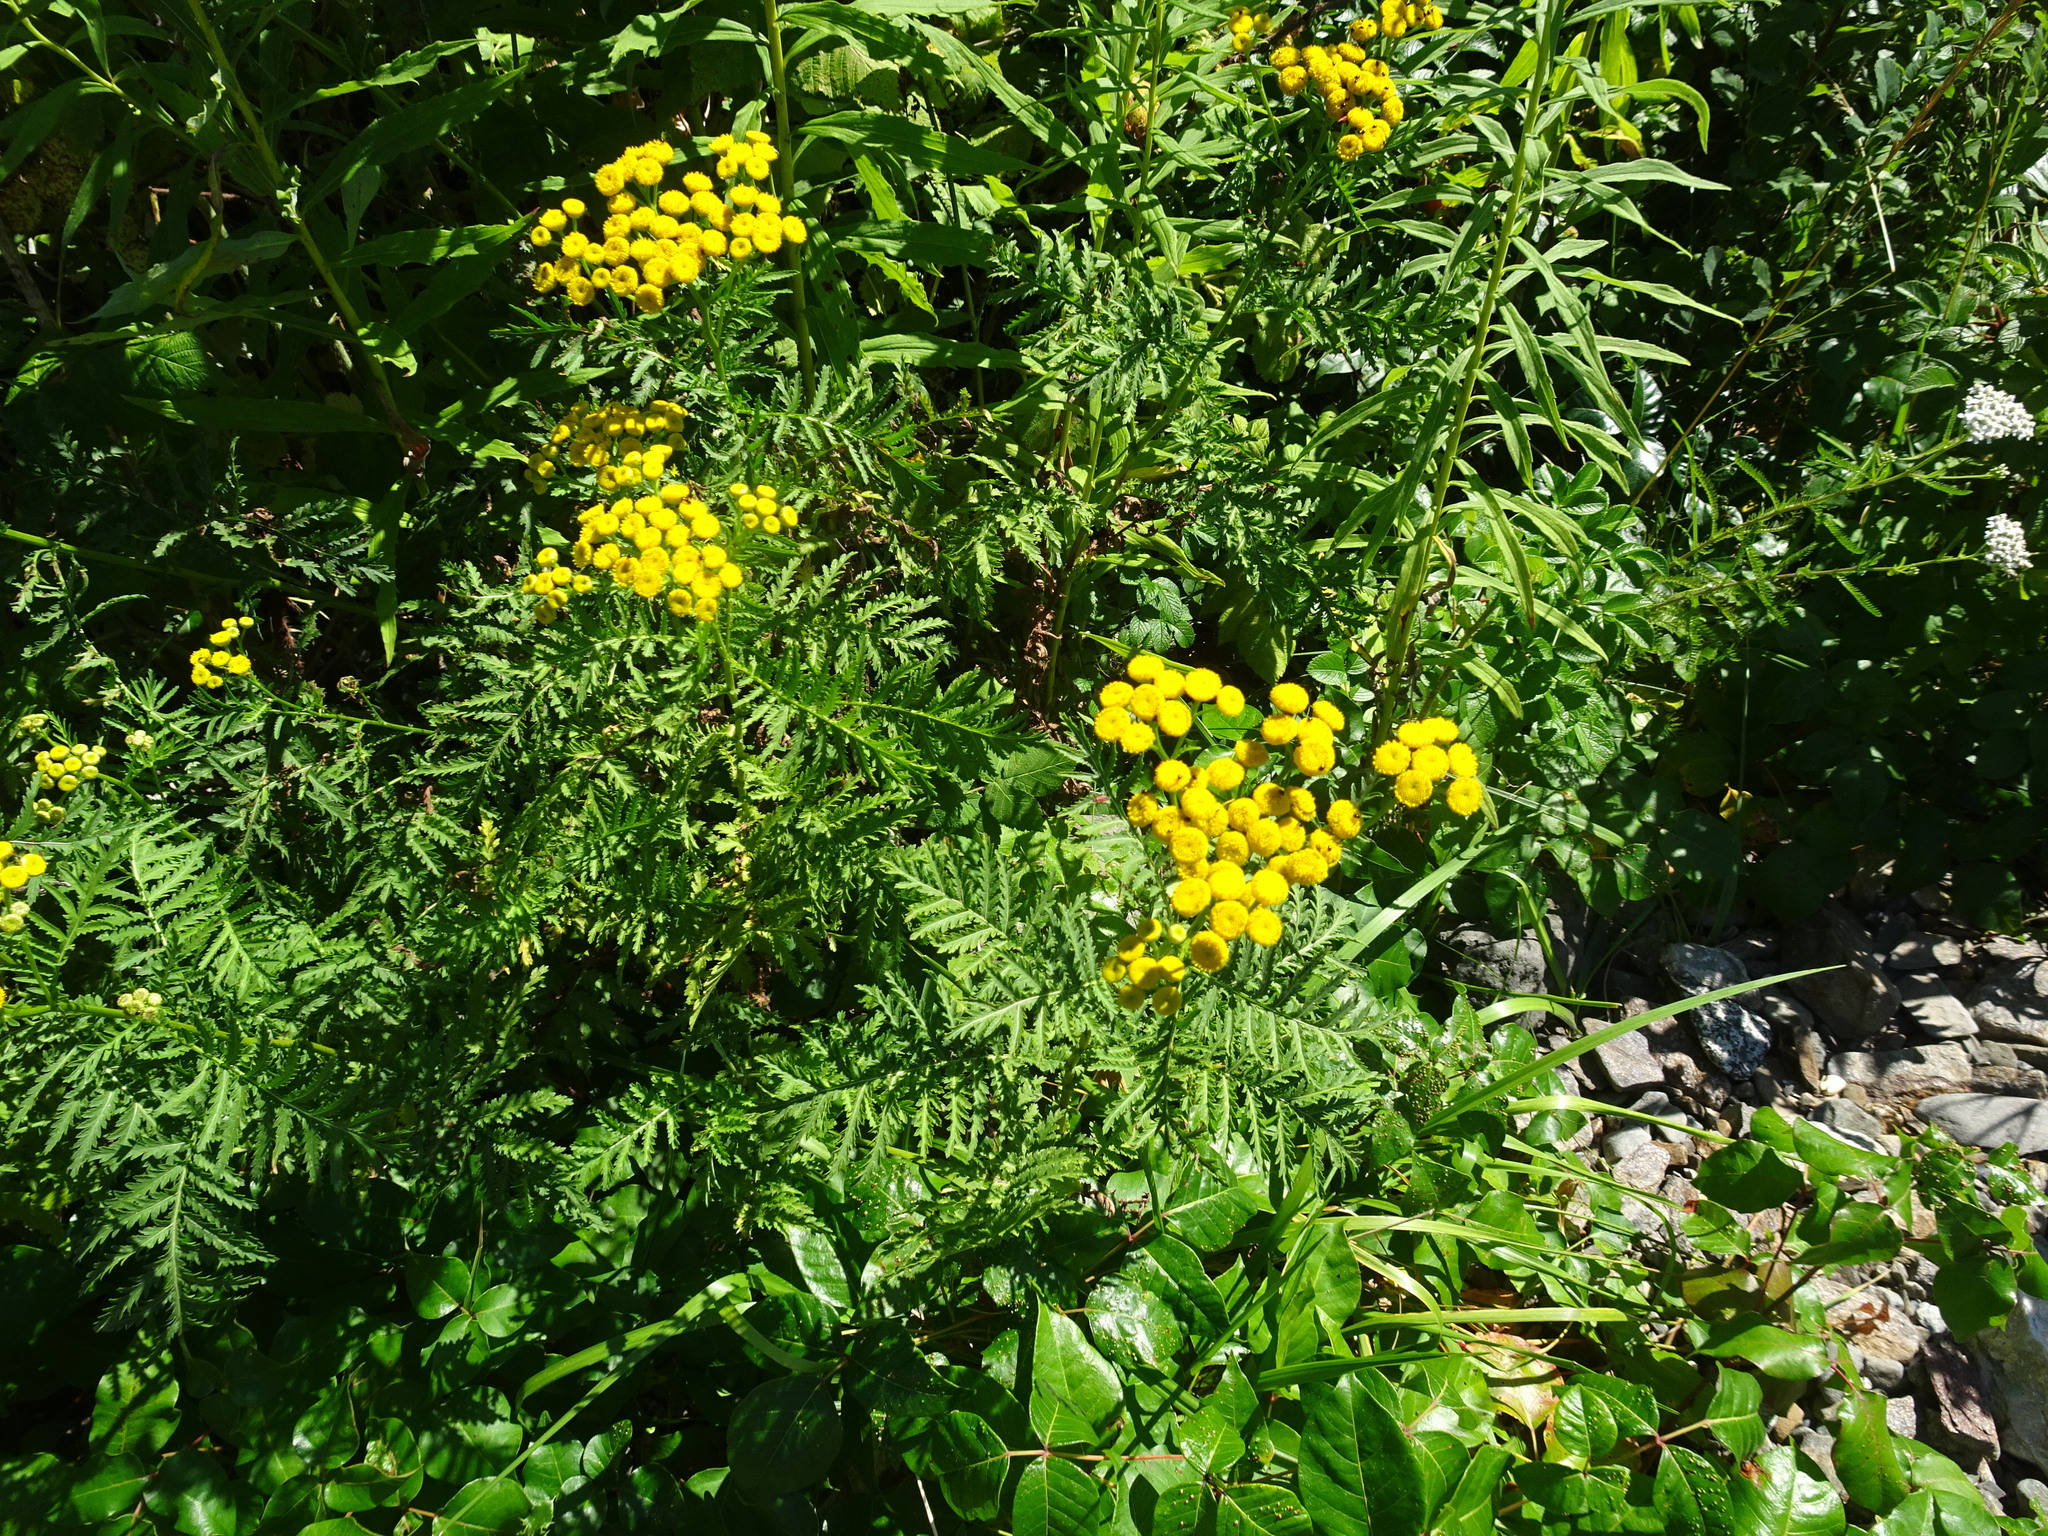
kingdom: Plantae
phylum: Tracheophyta
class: Magnoliopsida
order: Asterales
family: Asteraceae
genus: Tanacetum
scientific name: Tanacetum vulgare
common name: Common tansy
